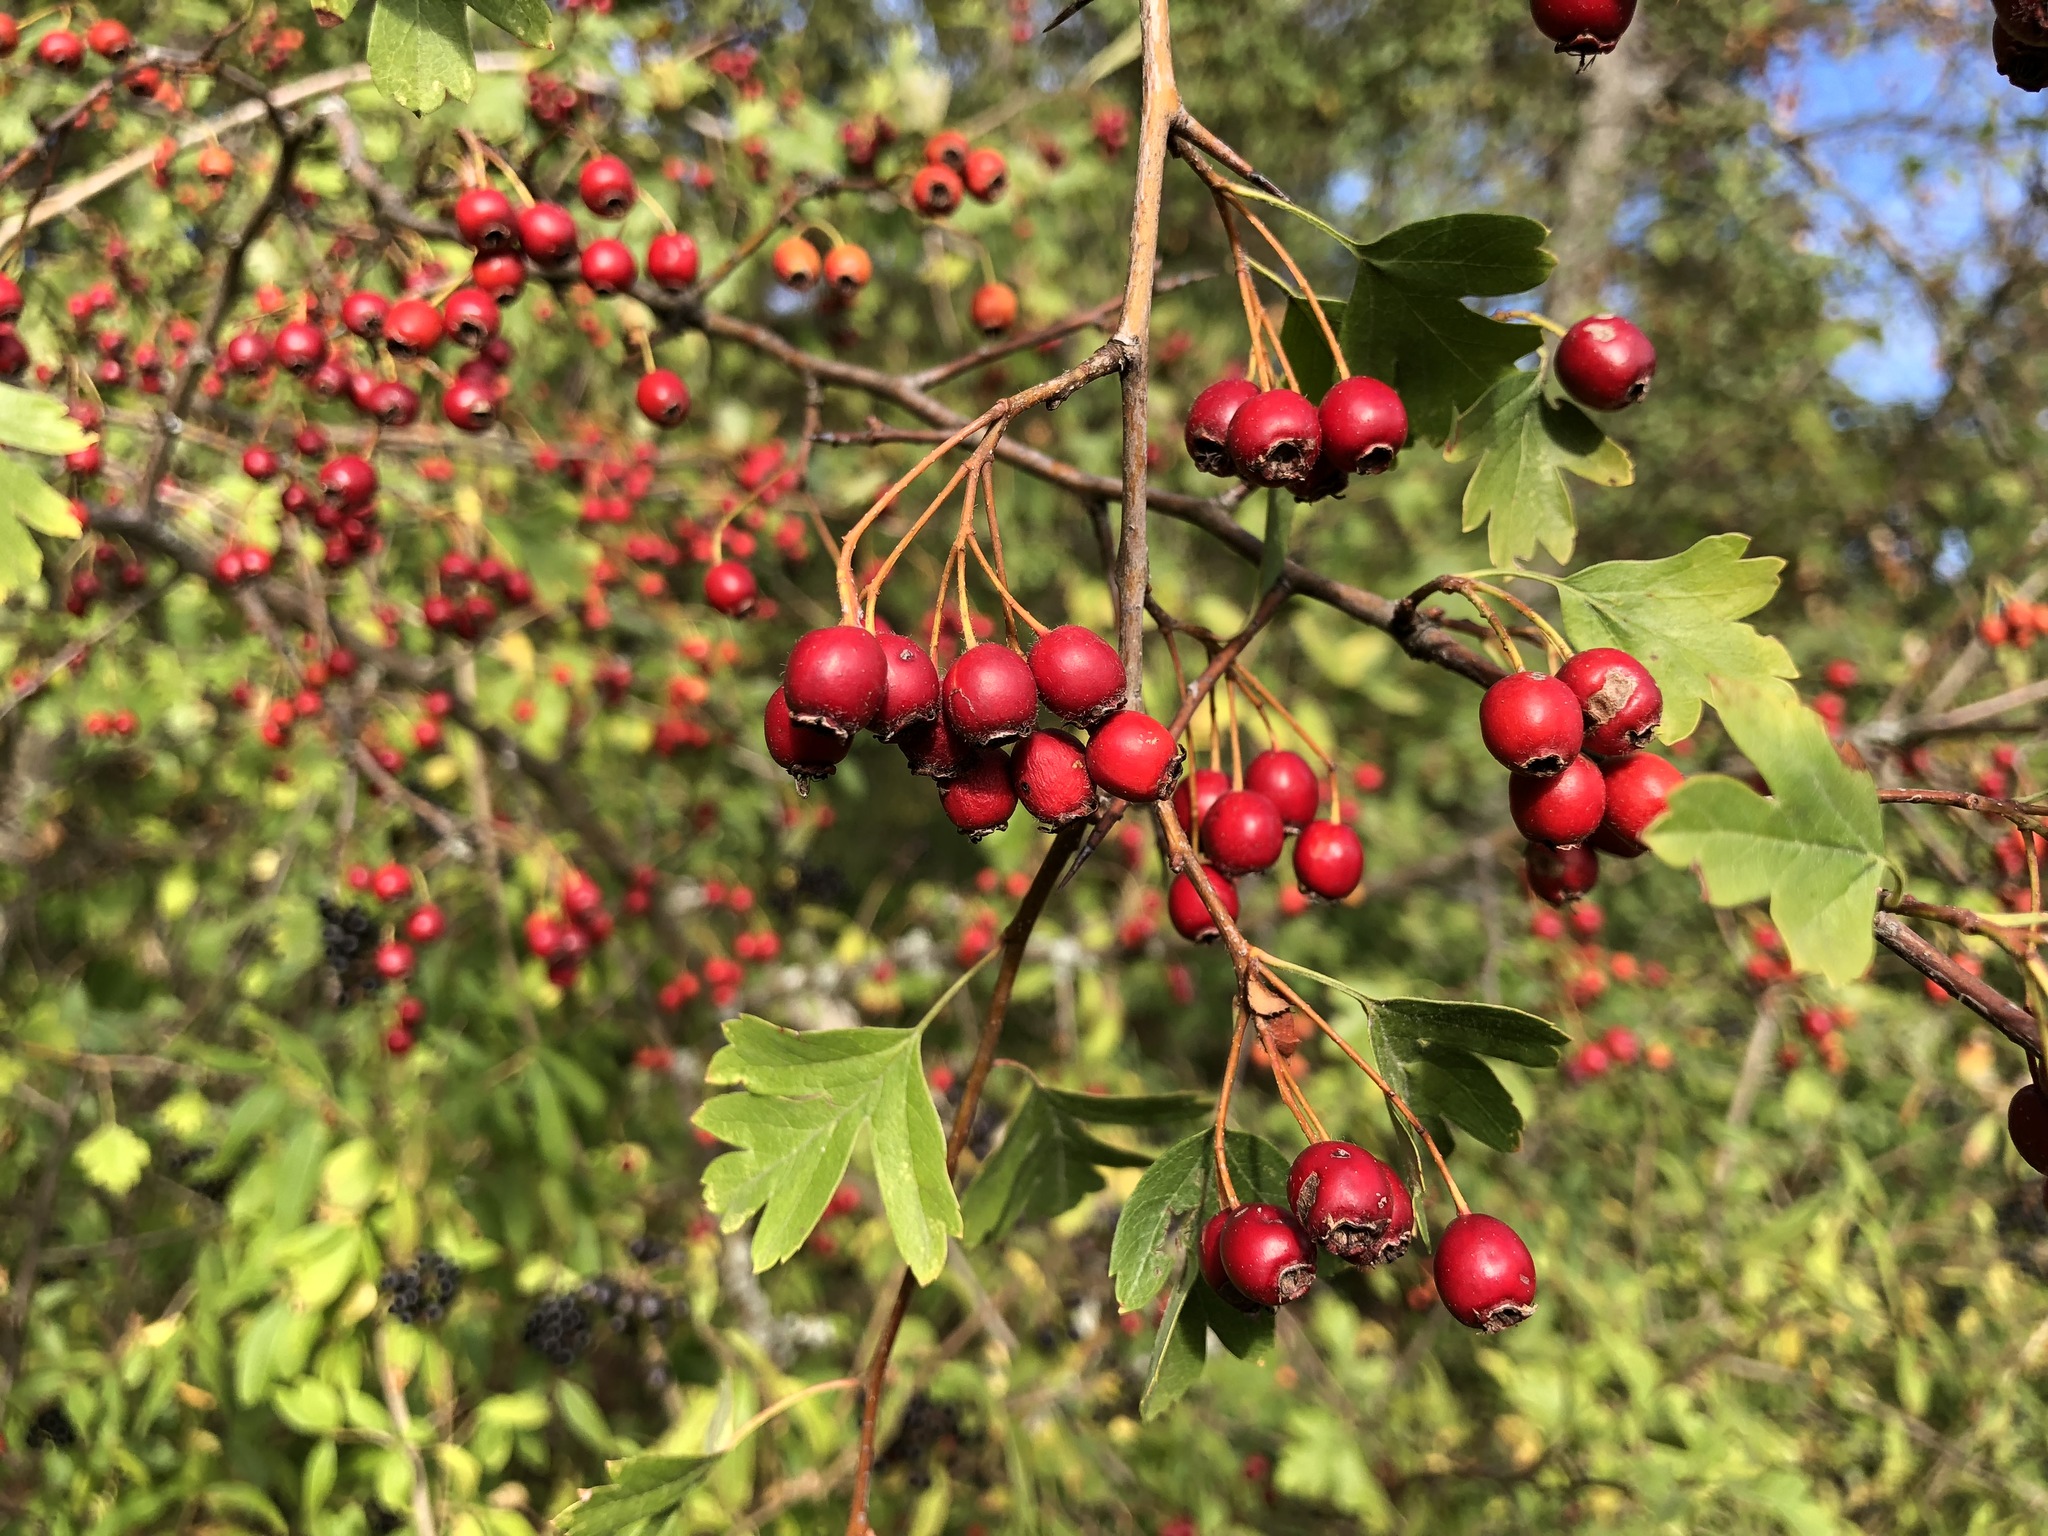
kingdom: Plantae
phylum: Tracheophyta
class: Magnoliopsida
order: Rosales
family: Rosaceae
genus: Crataegus
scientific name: Crataegus monogyna
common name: Hawthorn
